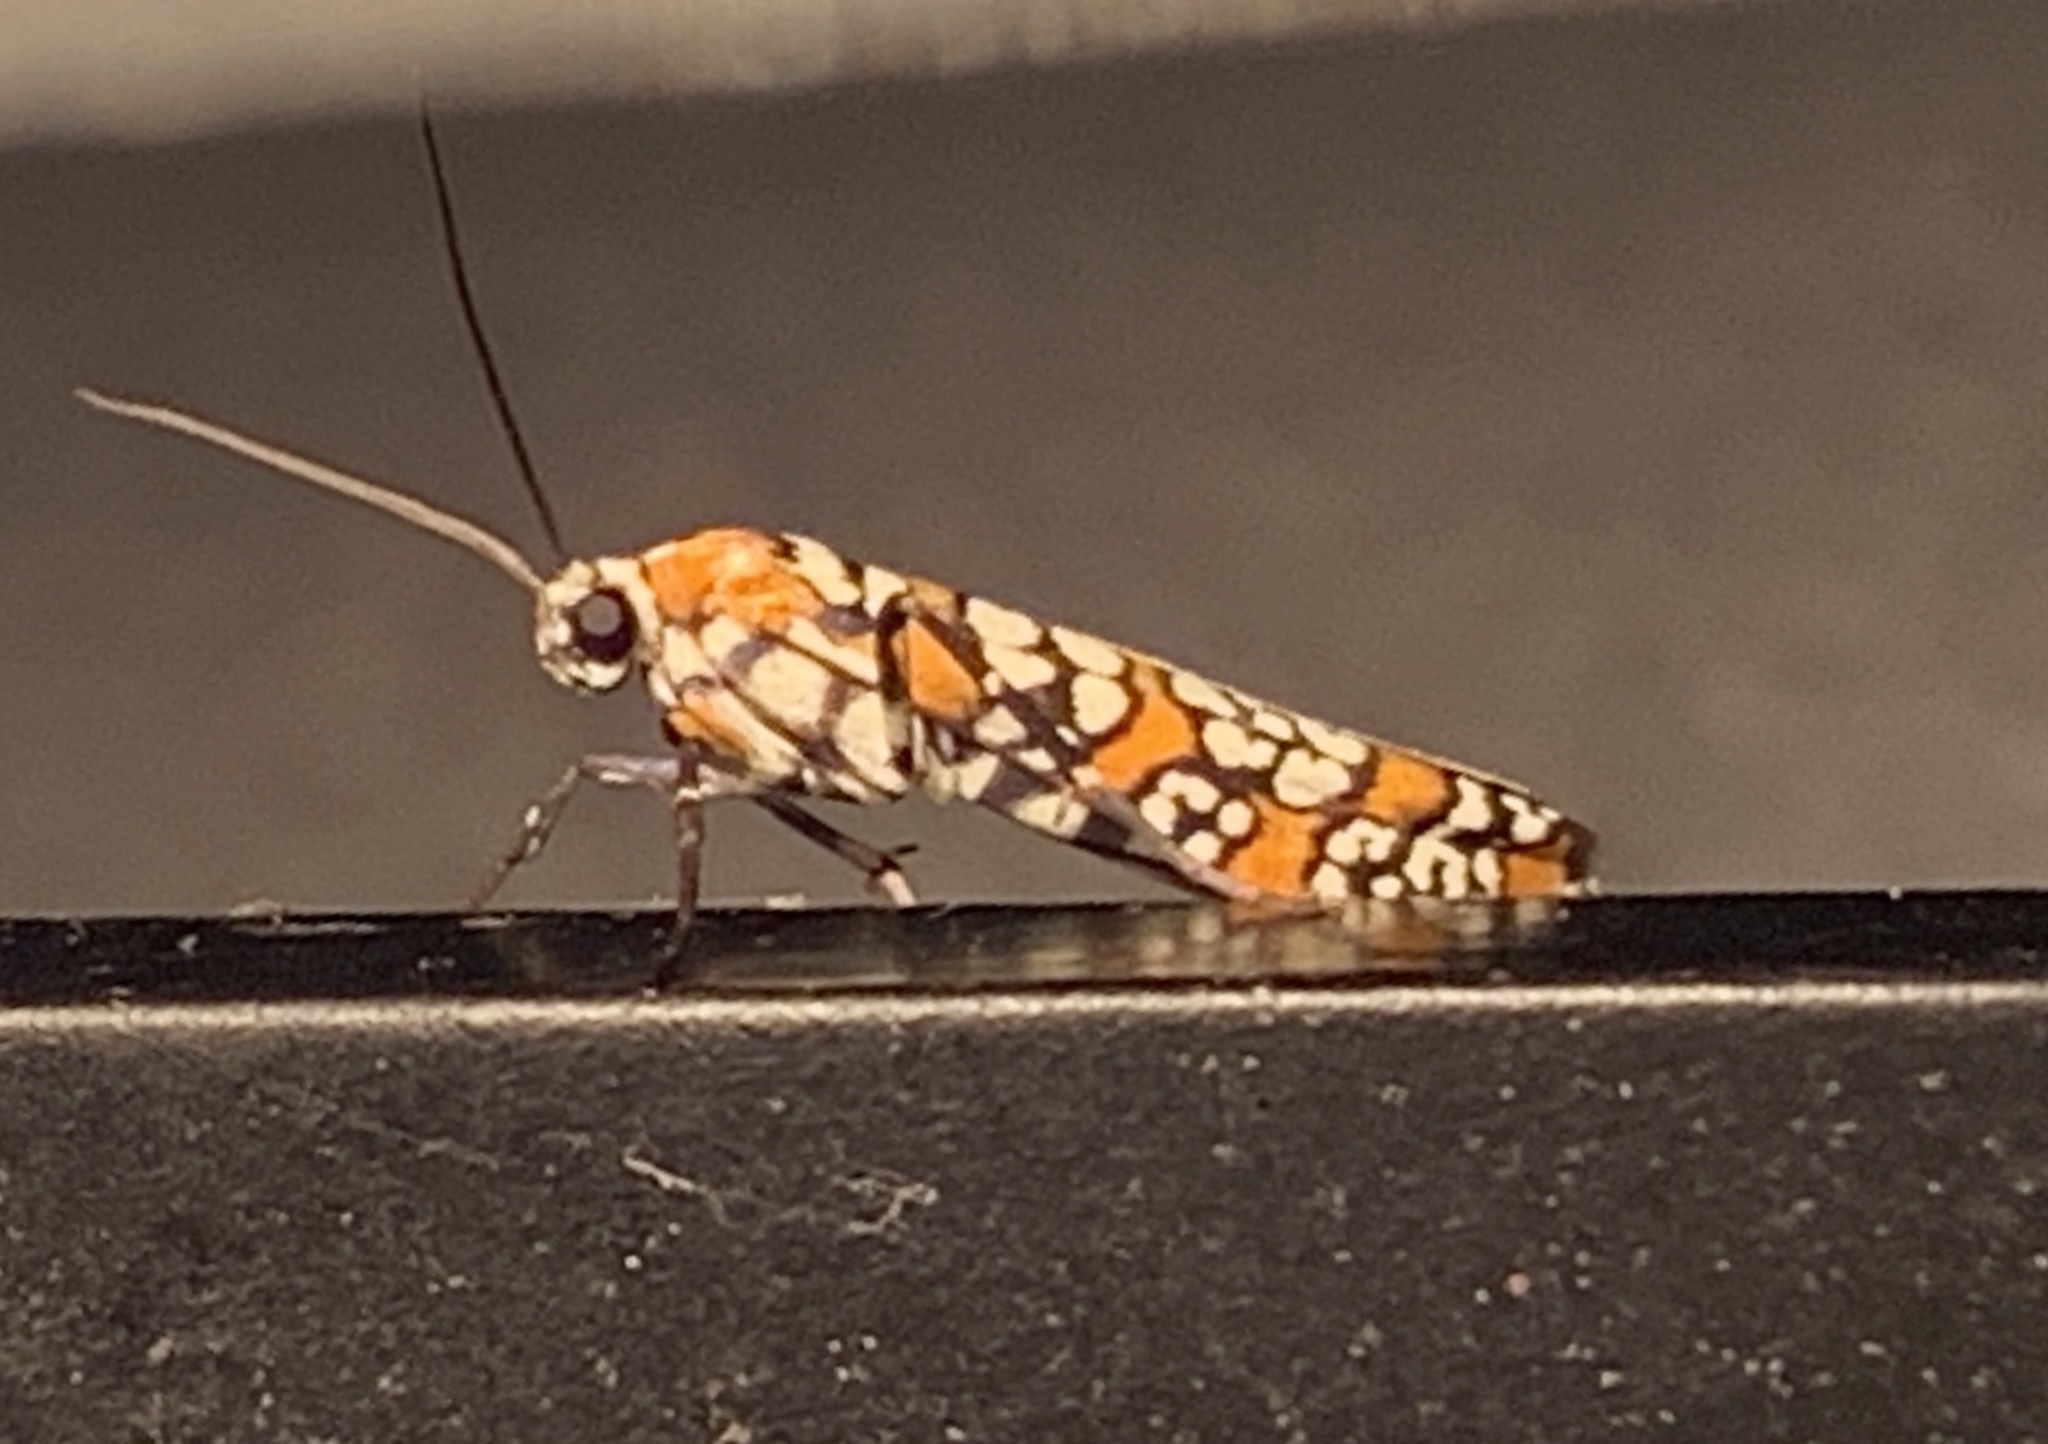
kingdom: Animalia
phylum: Arthropoda
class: Insecta
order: Lepidoptera
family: Attevidae
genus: Atteva
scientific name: Atteva punctella
